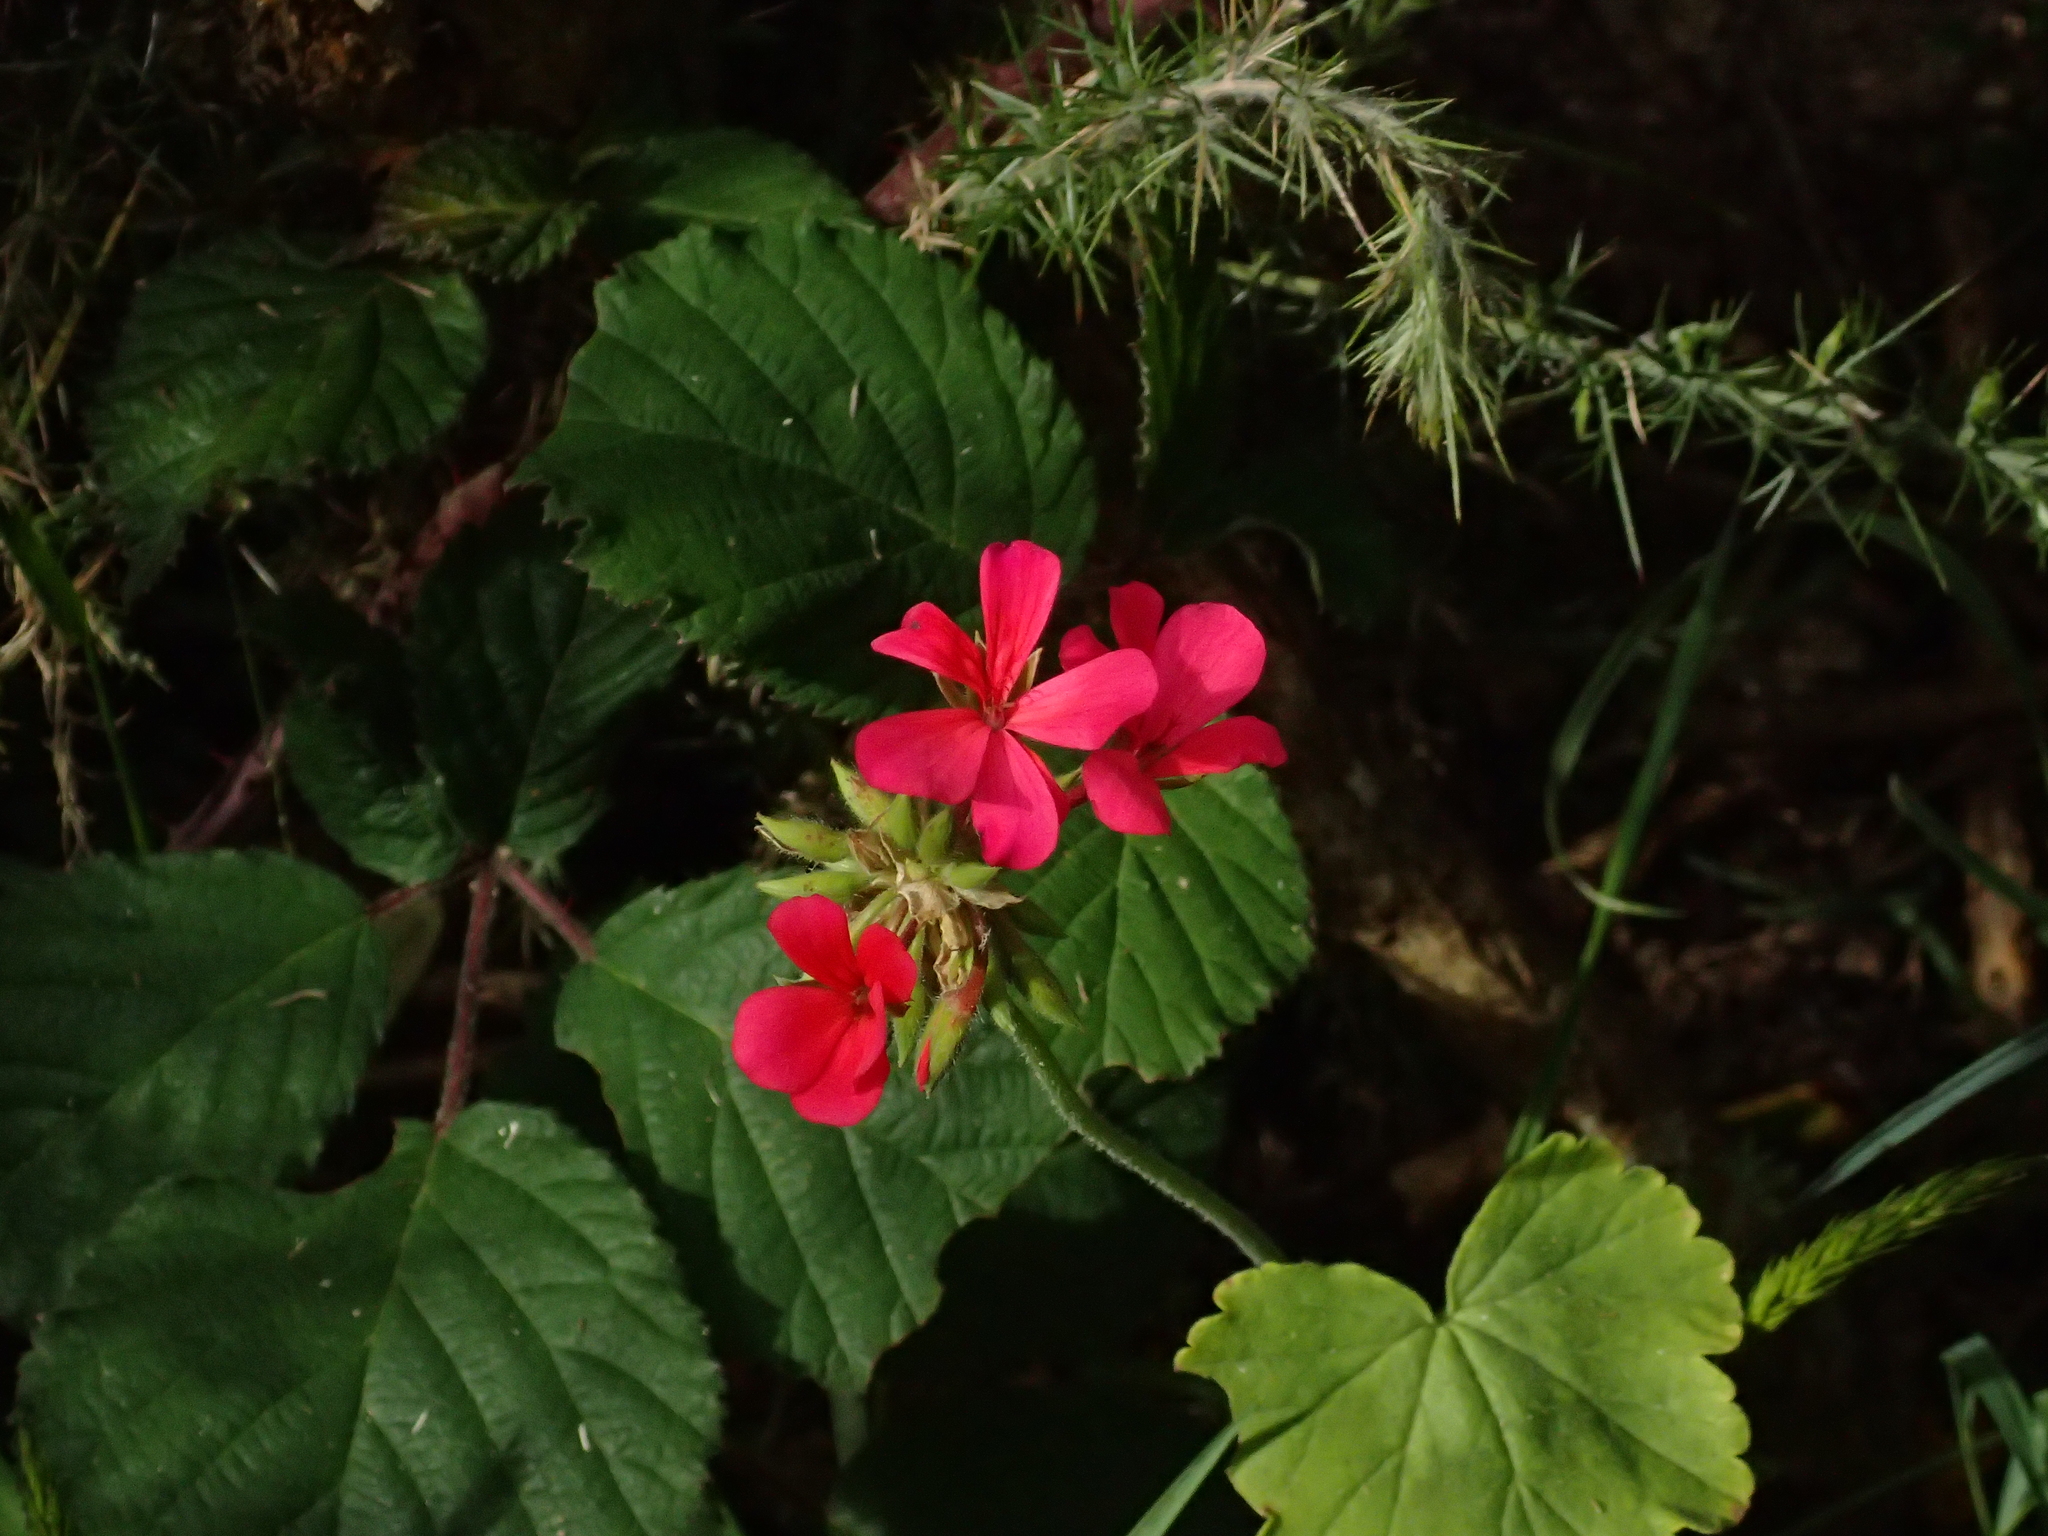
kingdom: Plantae
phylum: Tracheophyta
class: Magnoliopsida
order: Geraniales
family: Geraniaceae
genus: Pelargonium
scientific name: Pelargonium hybridum
